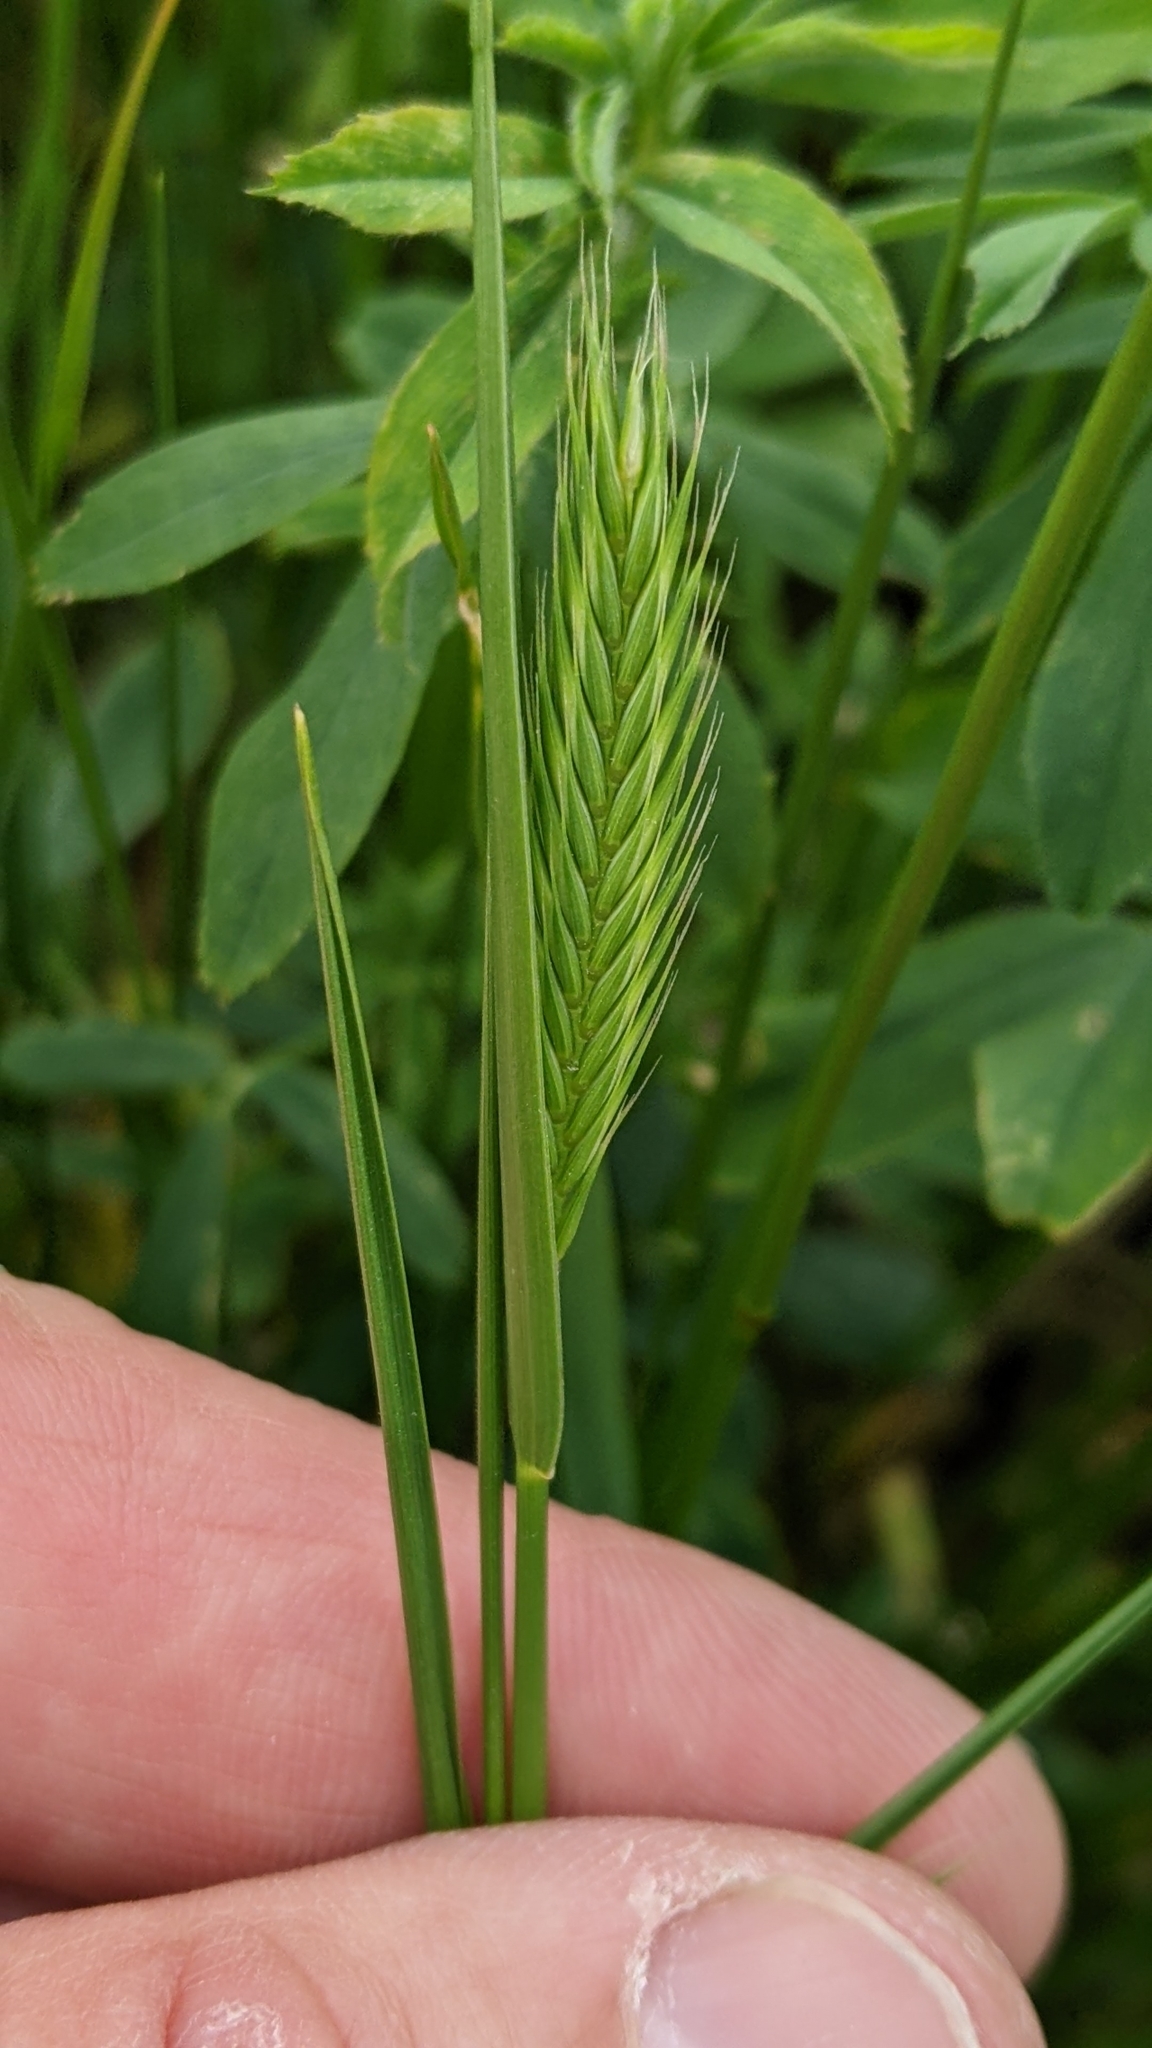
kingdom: Plantae
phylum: Tracheophyta
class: Liliopsida
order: Poales
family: Poaceae
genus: Agropyron
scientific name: Agropyron cristatum
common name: Crested wheatgrass
